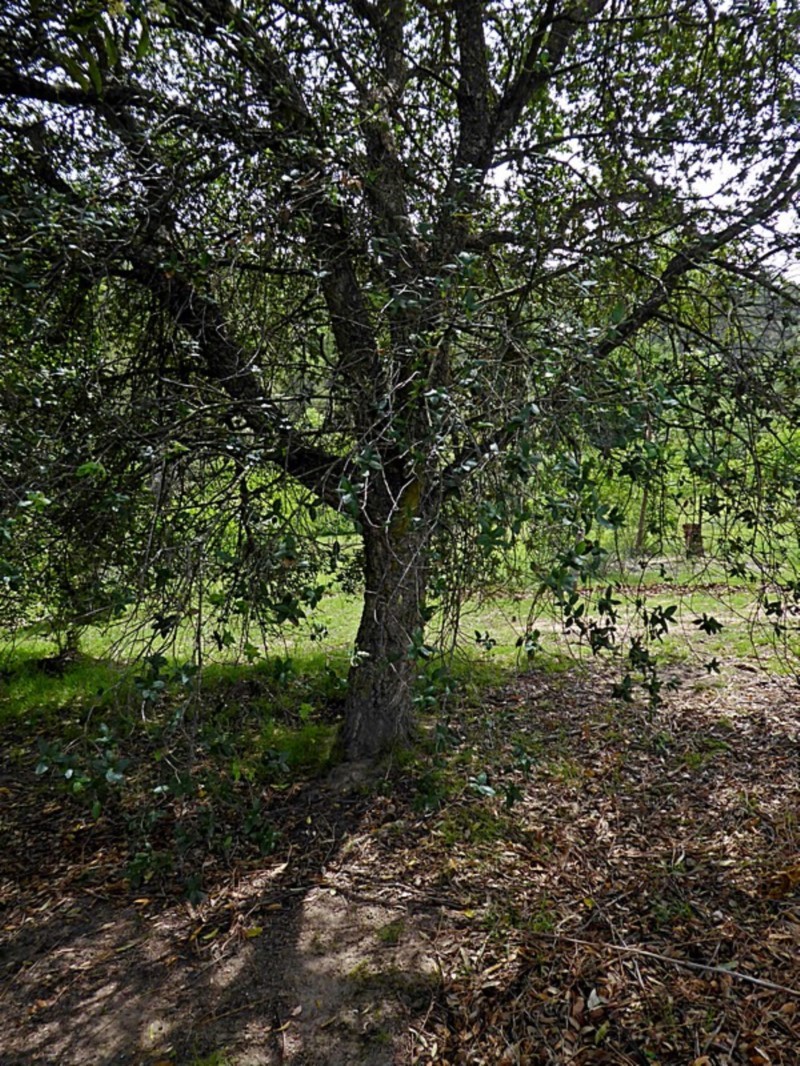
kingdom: Fungi
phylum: Basidiomycota
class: Agaricomycetes
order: Boletales
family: Diplocystidiaceae
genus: Astraeus
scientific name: Astraeus hygrometricus
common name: Barometer earthstar
